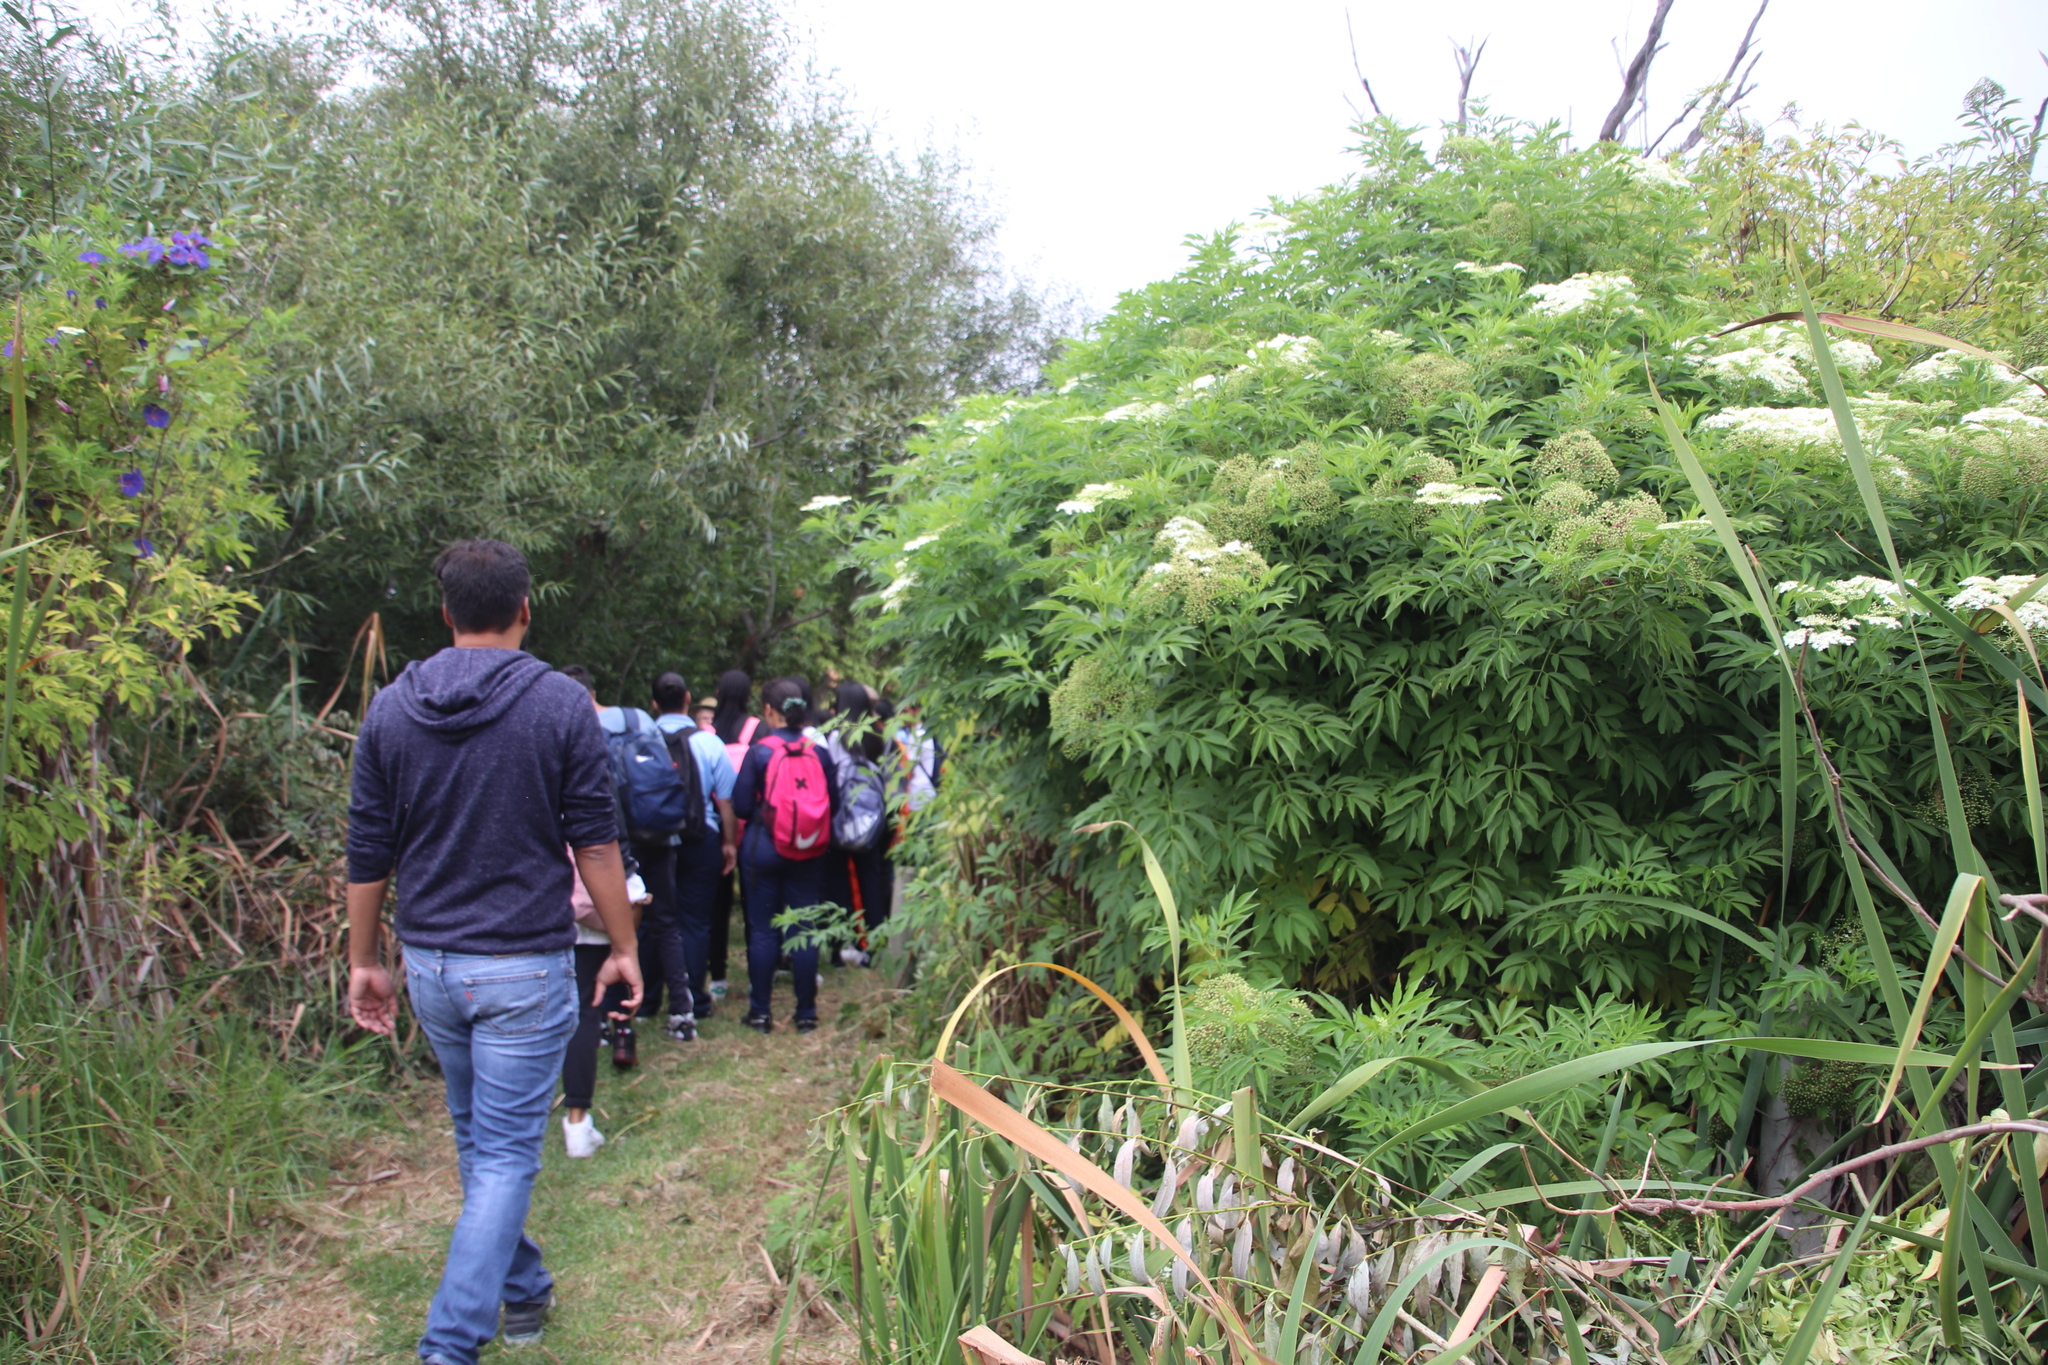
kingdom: Plantae
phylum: Tracheophyta
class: Magnoliopsida
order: Dipsacales
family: Viburnaceae
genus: Sambucus
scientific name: Sambucus nigra
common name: Elder
